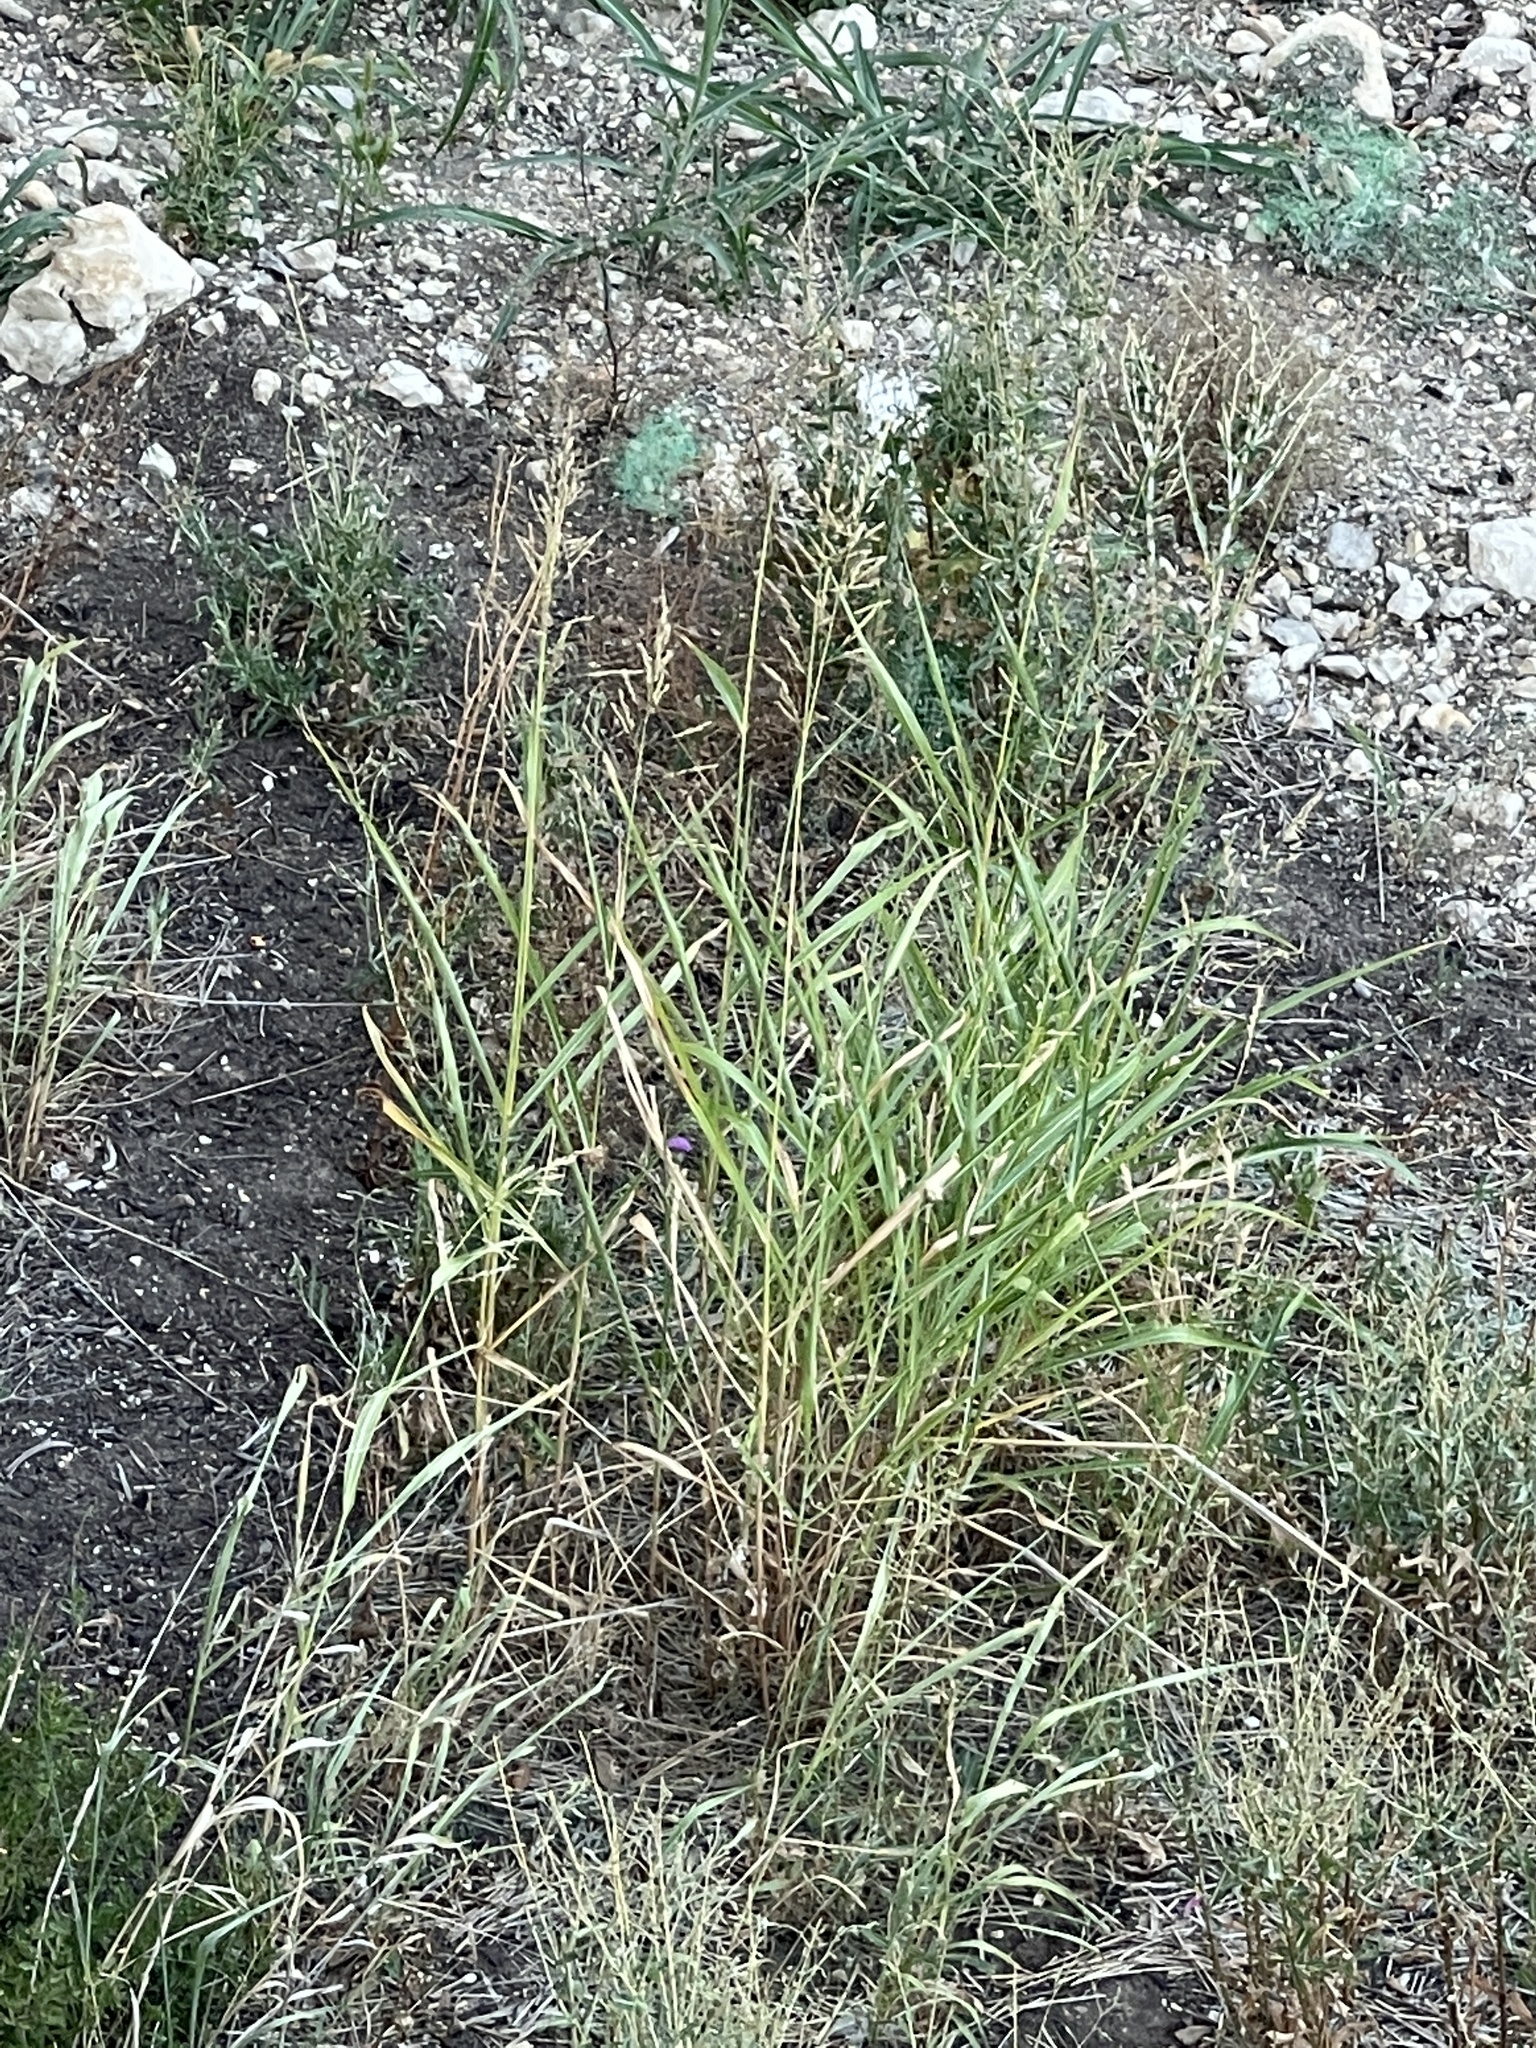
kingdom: Plantae
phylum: Tracheophyta
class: Liliopsida
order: Poales
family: Poaceae
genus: Sorghum
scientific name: Sorghum halepense
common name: Johnson-grass
